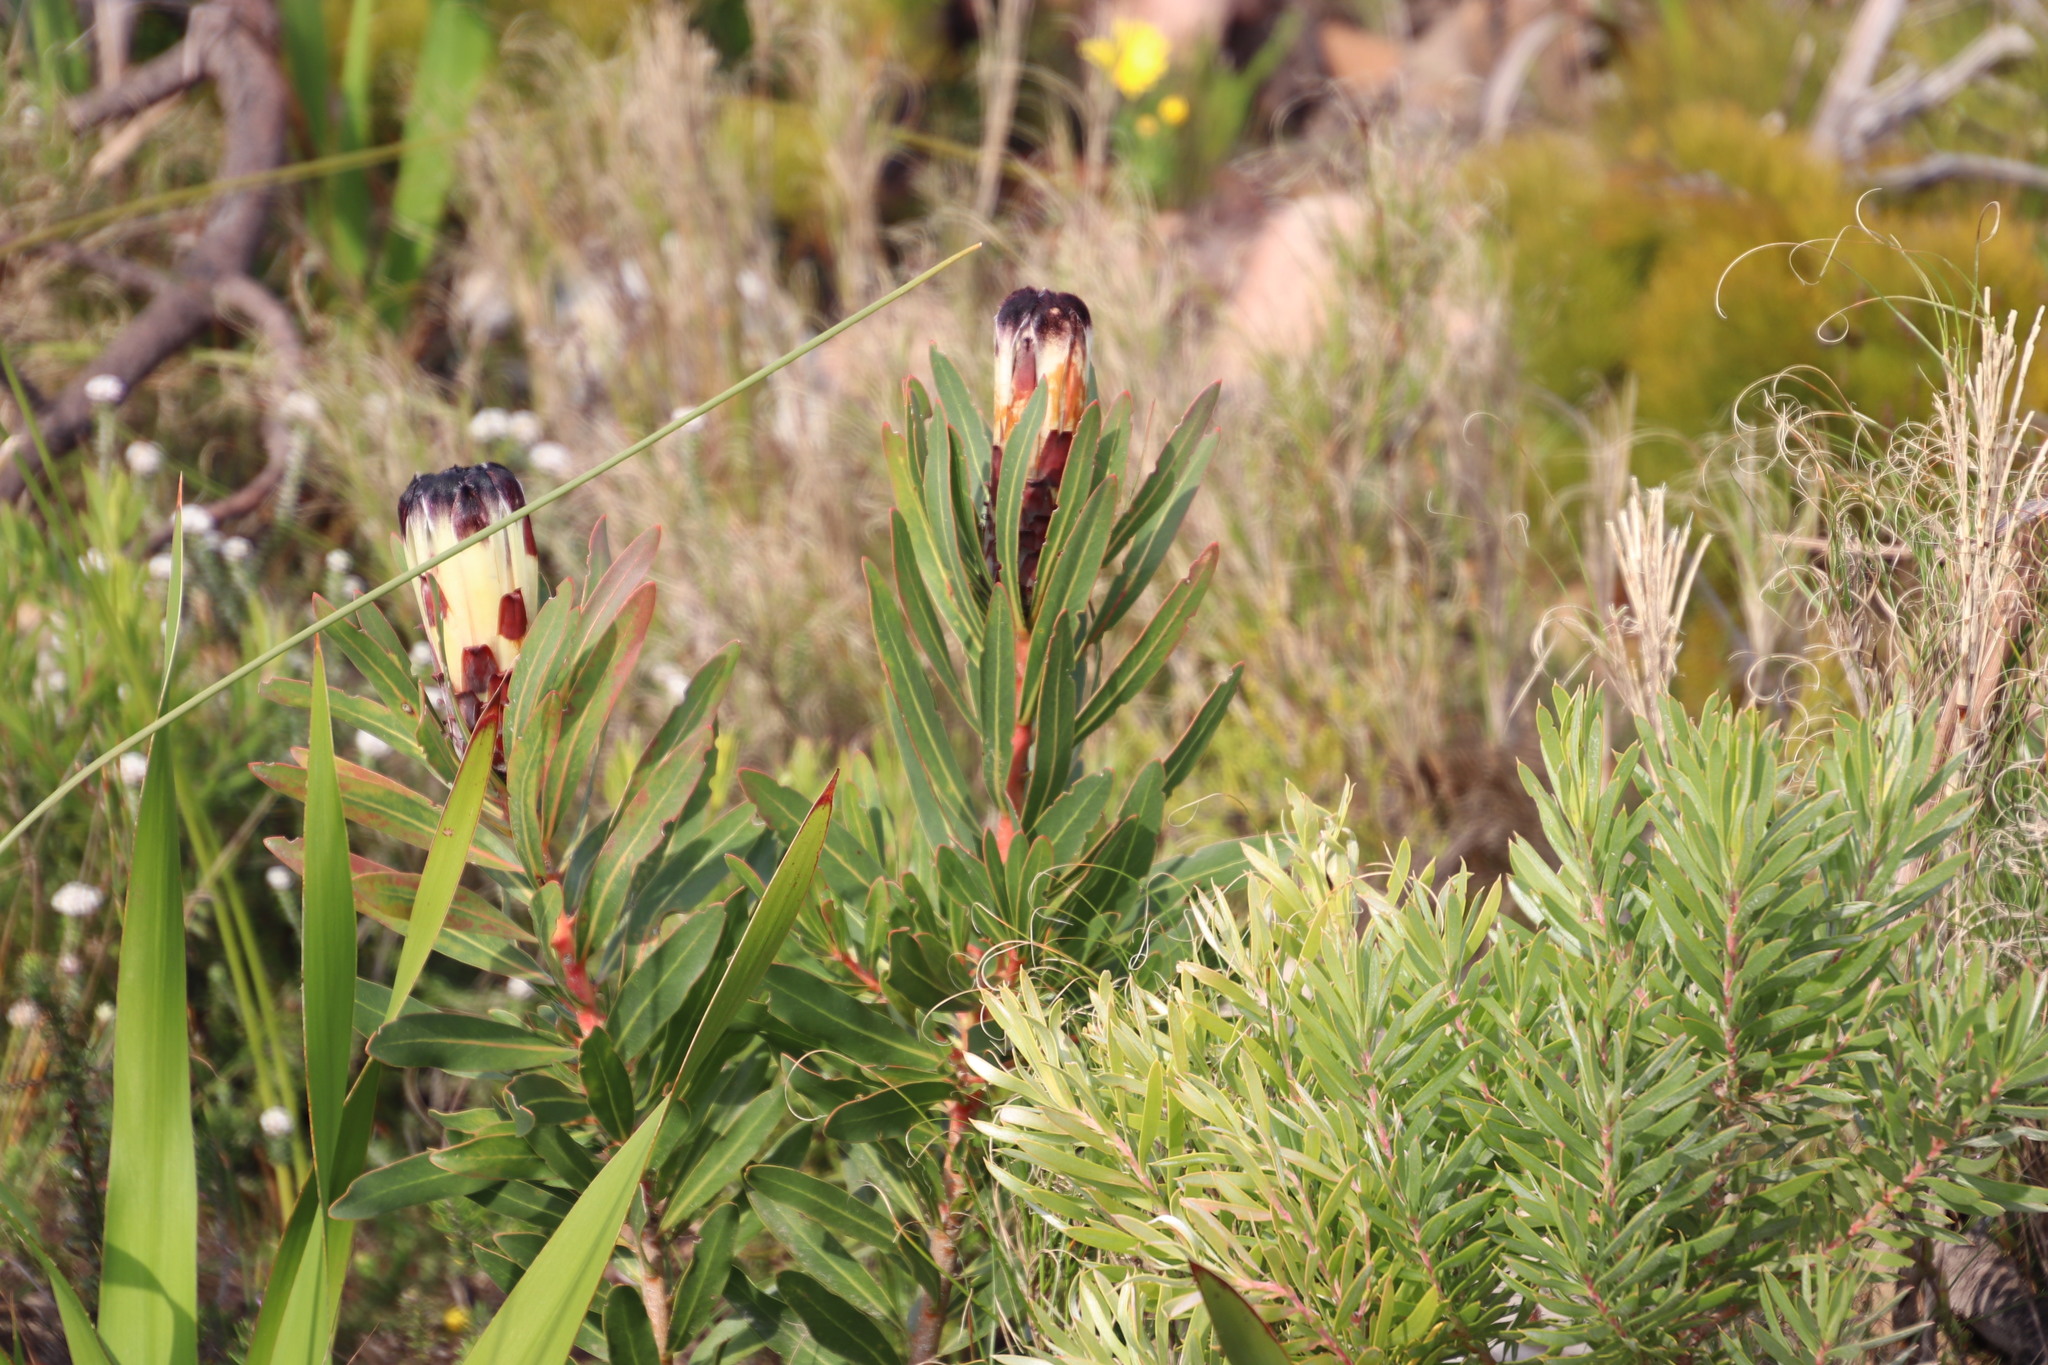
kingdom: Plantae
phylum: Tracheophyta
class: Magnoliopsida
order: Proteales
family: Proteaceae
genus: Protea
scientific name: Protea lepidocarpodendron
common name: Black-bearded protea
